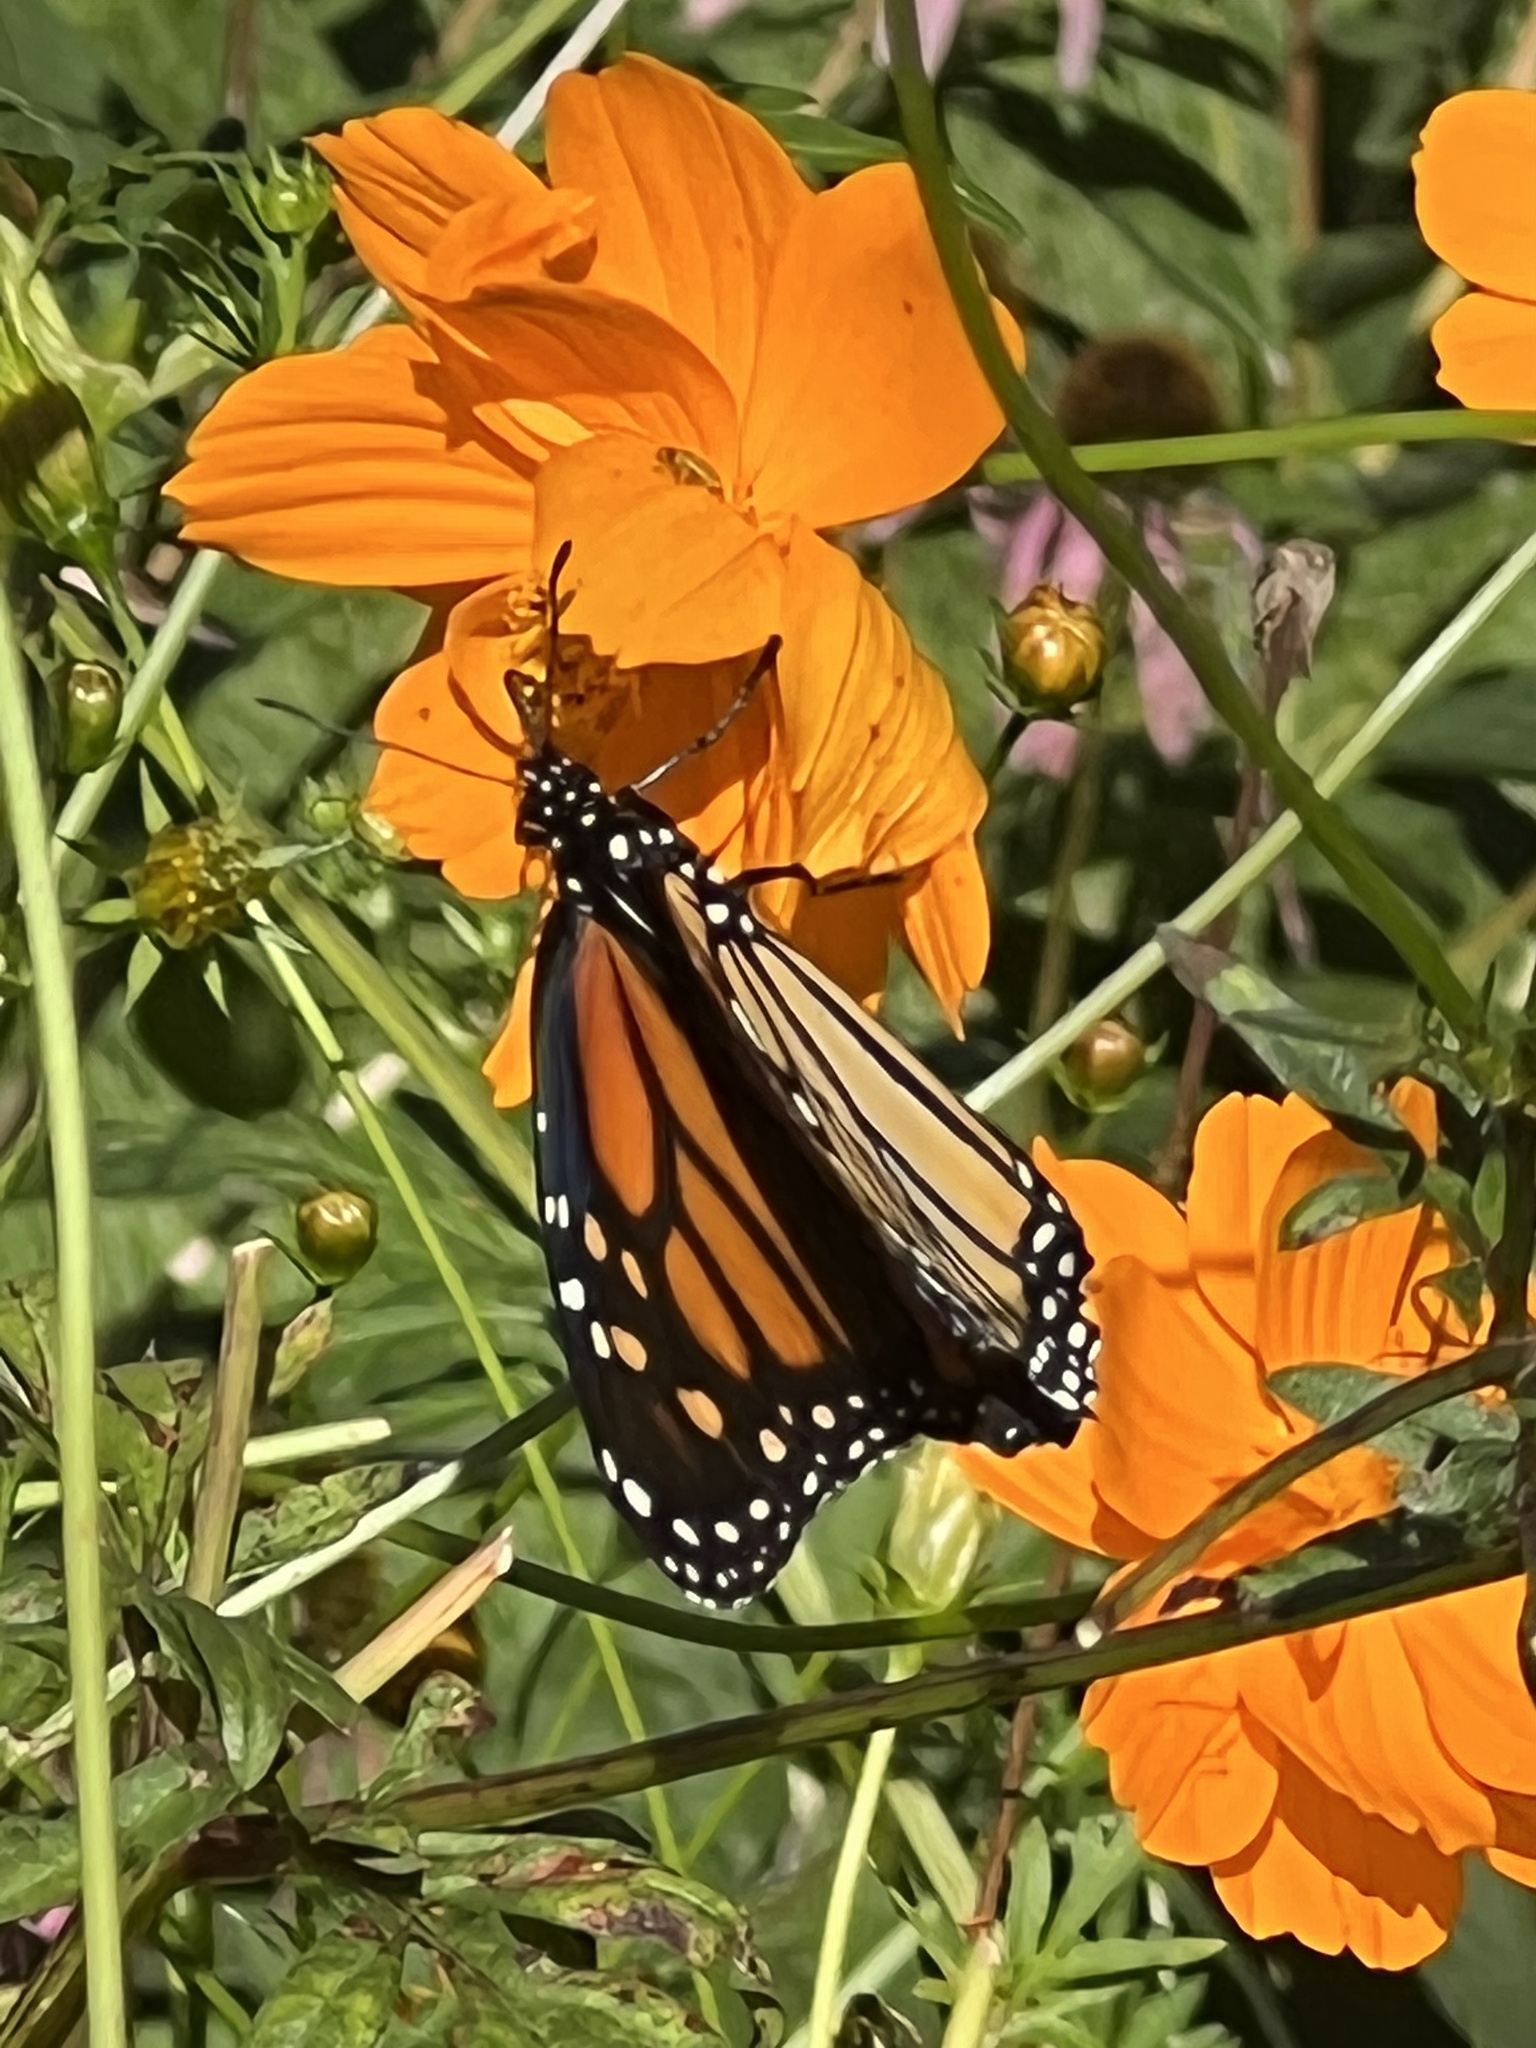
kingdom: Animalia
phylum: Arthropoda
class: Insecta
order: Lepidoptera
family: Nymphalidae
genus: Danaus
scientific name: Danaus plexippus
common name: Monarch
